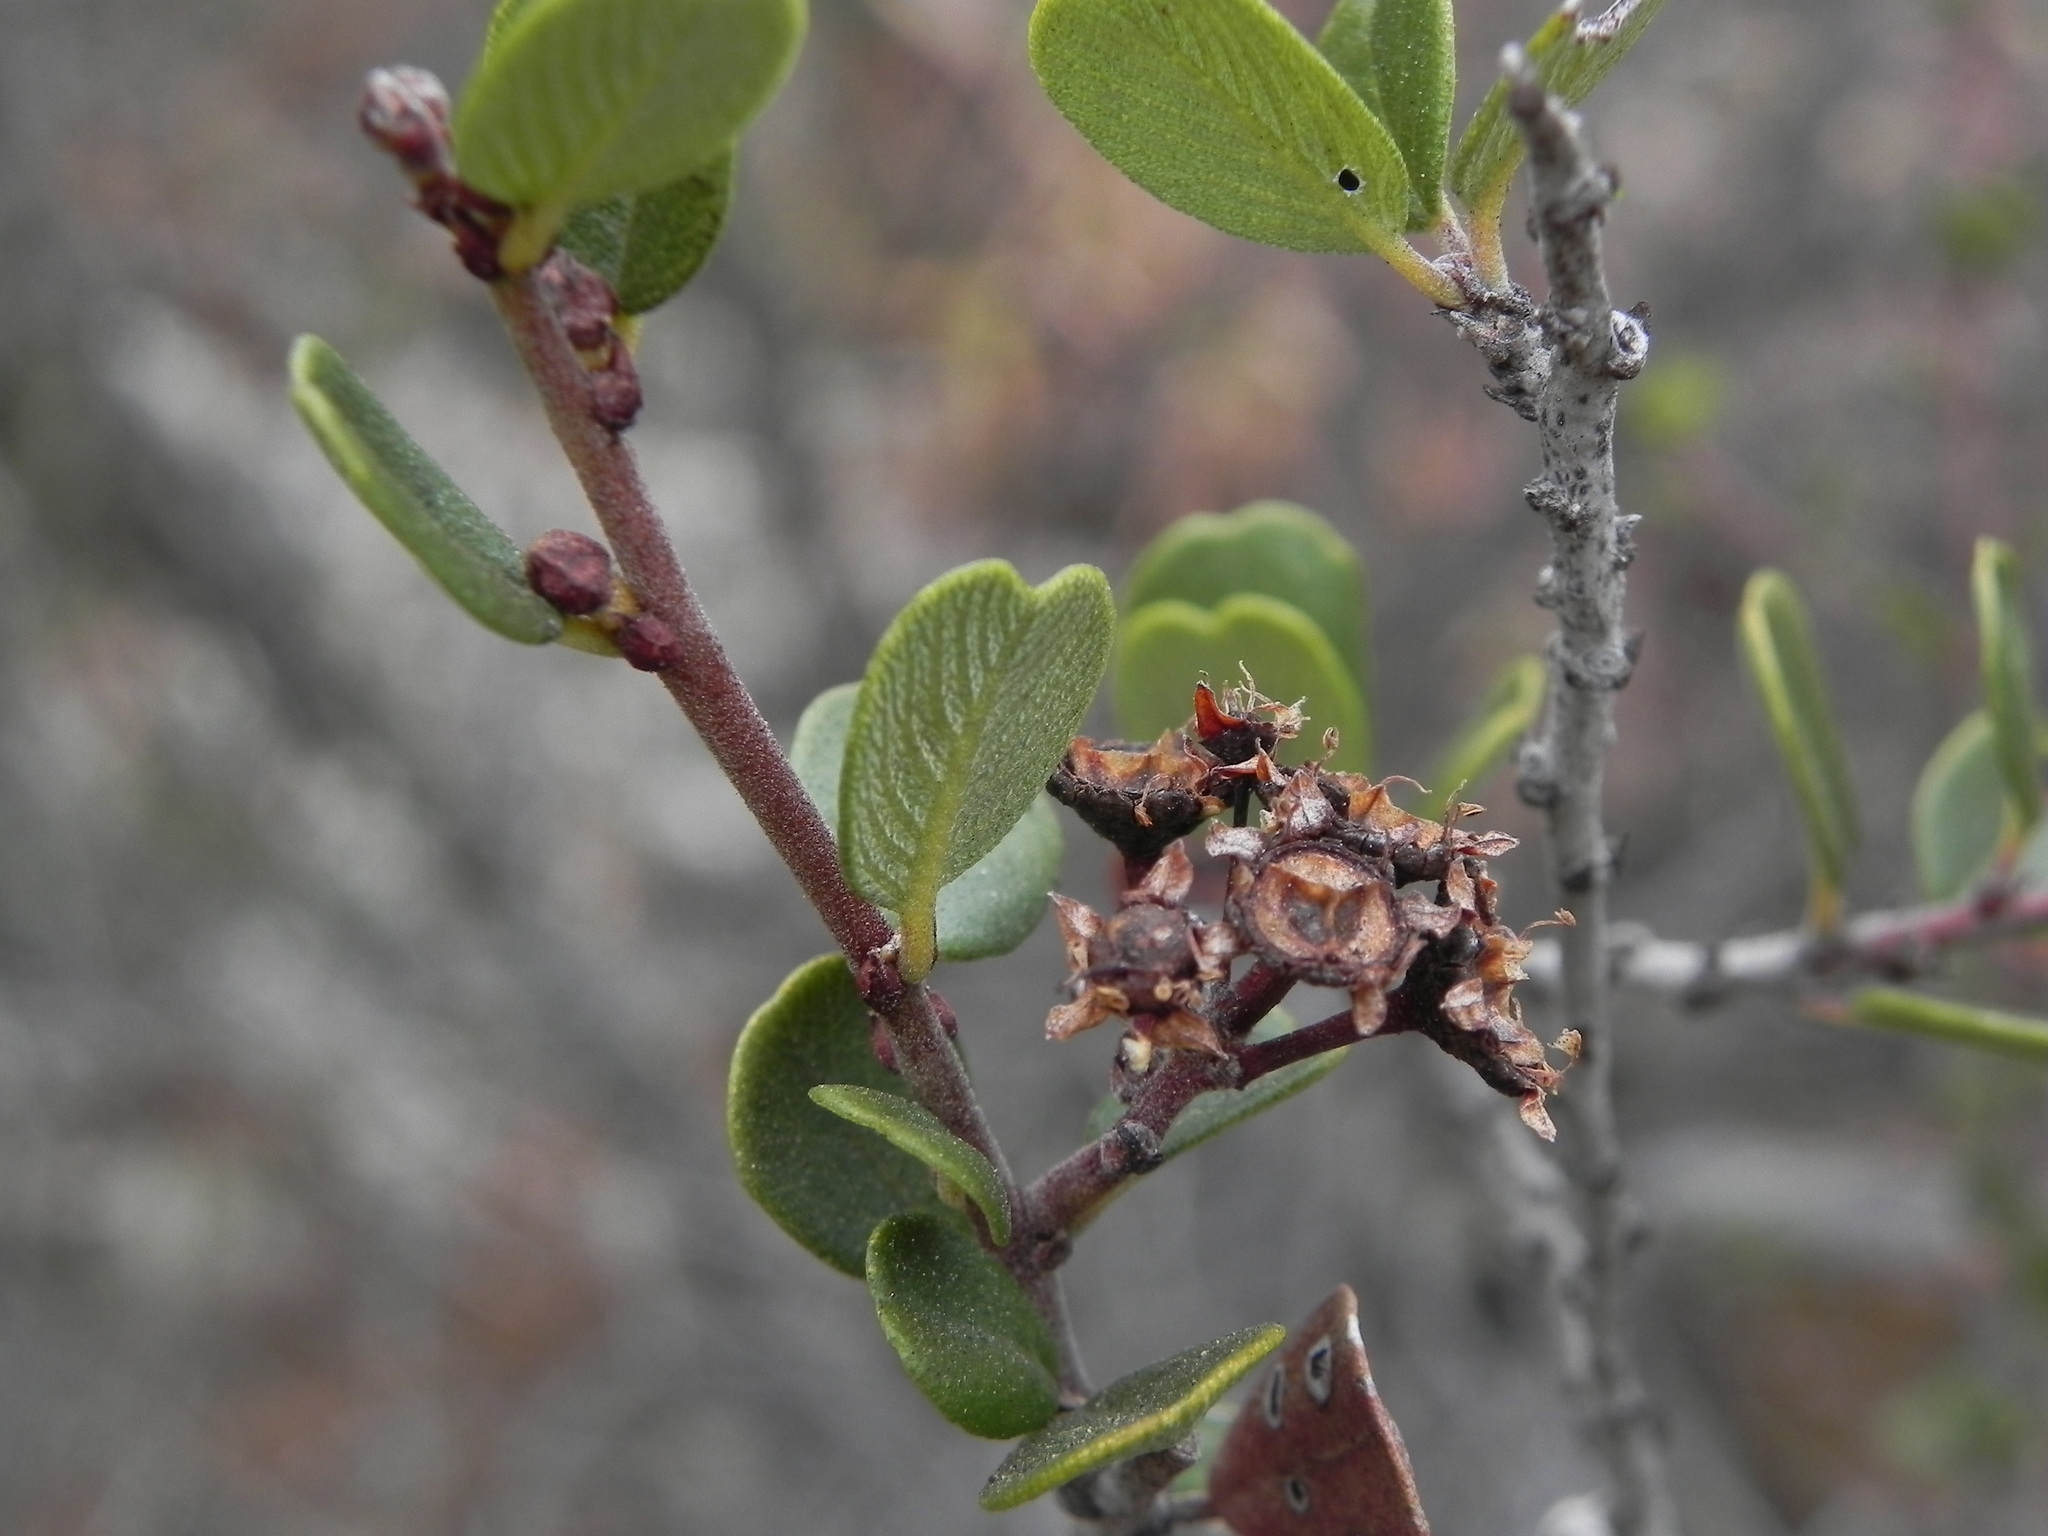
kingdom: Plantae
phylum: Tracheophyta
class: Magnoliopsida
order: Rosales
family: Rhamnaceae
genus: Ceanothus
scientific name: Ceanothus verrucosus
